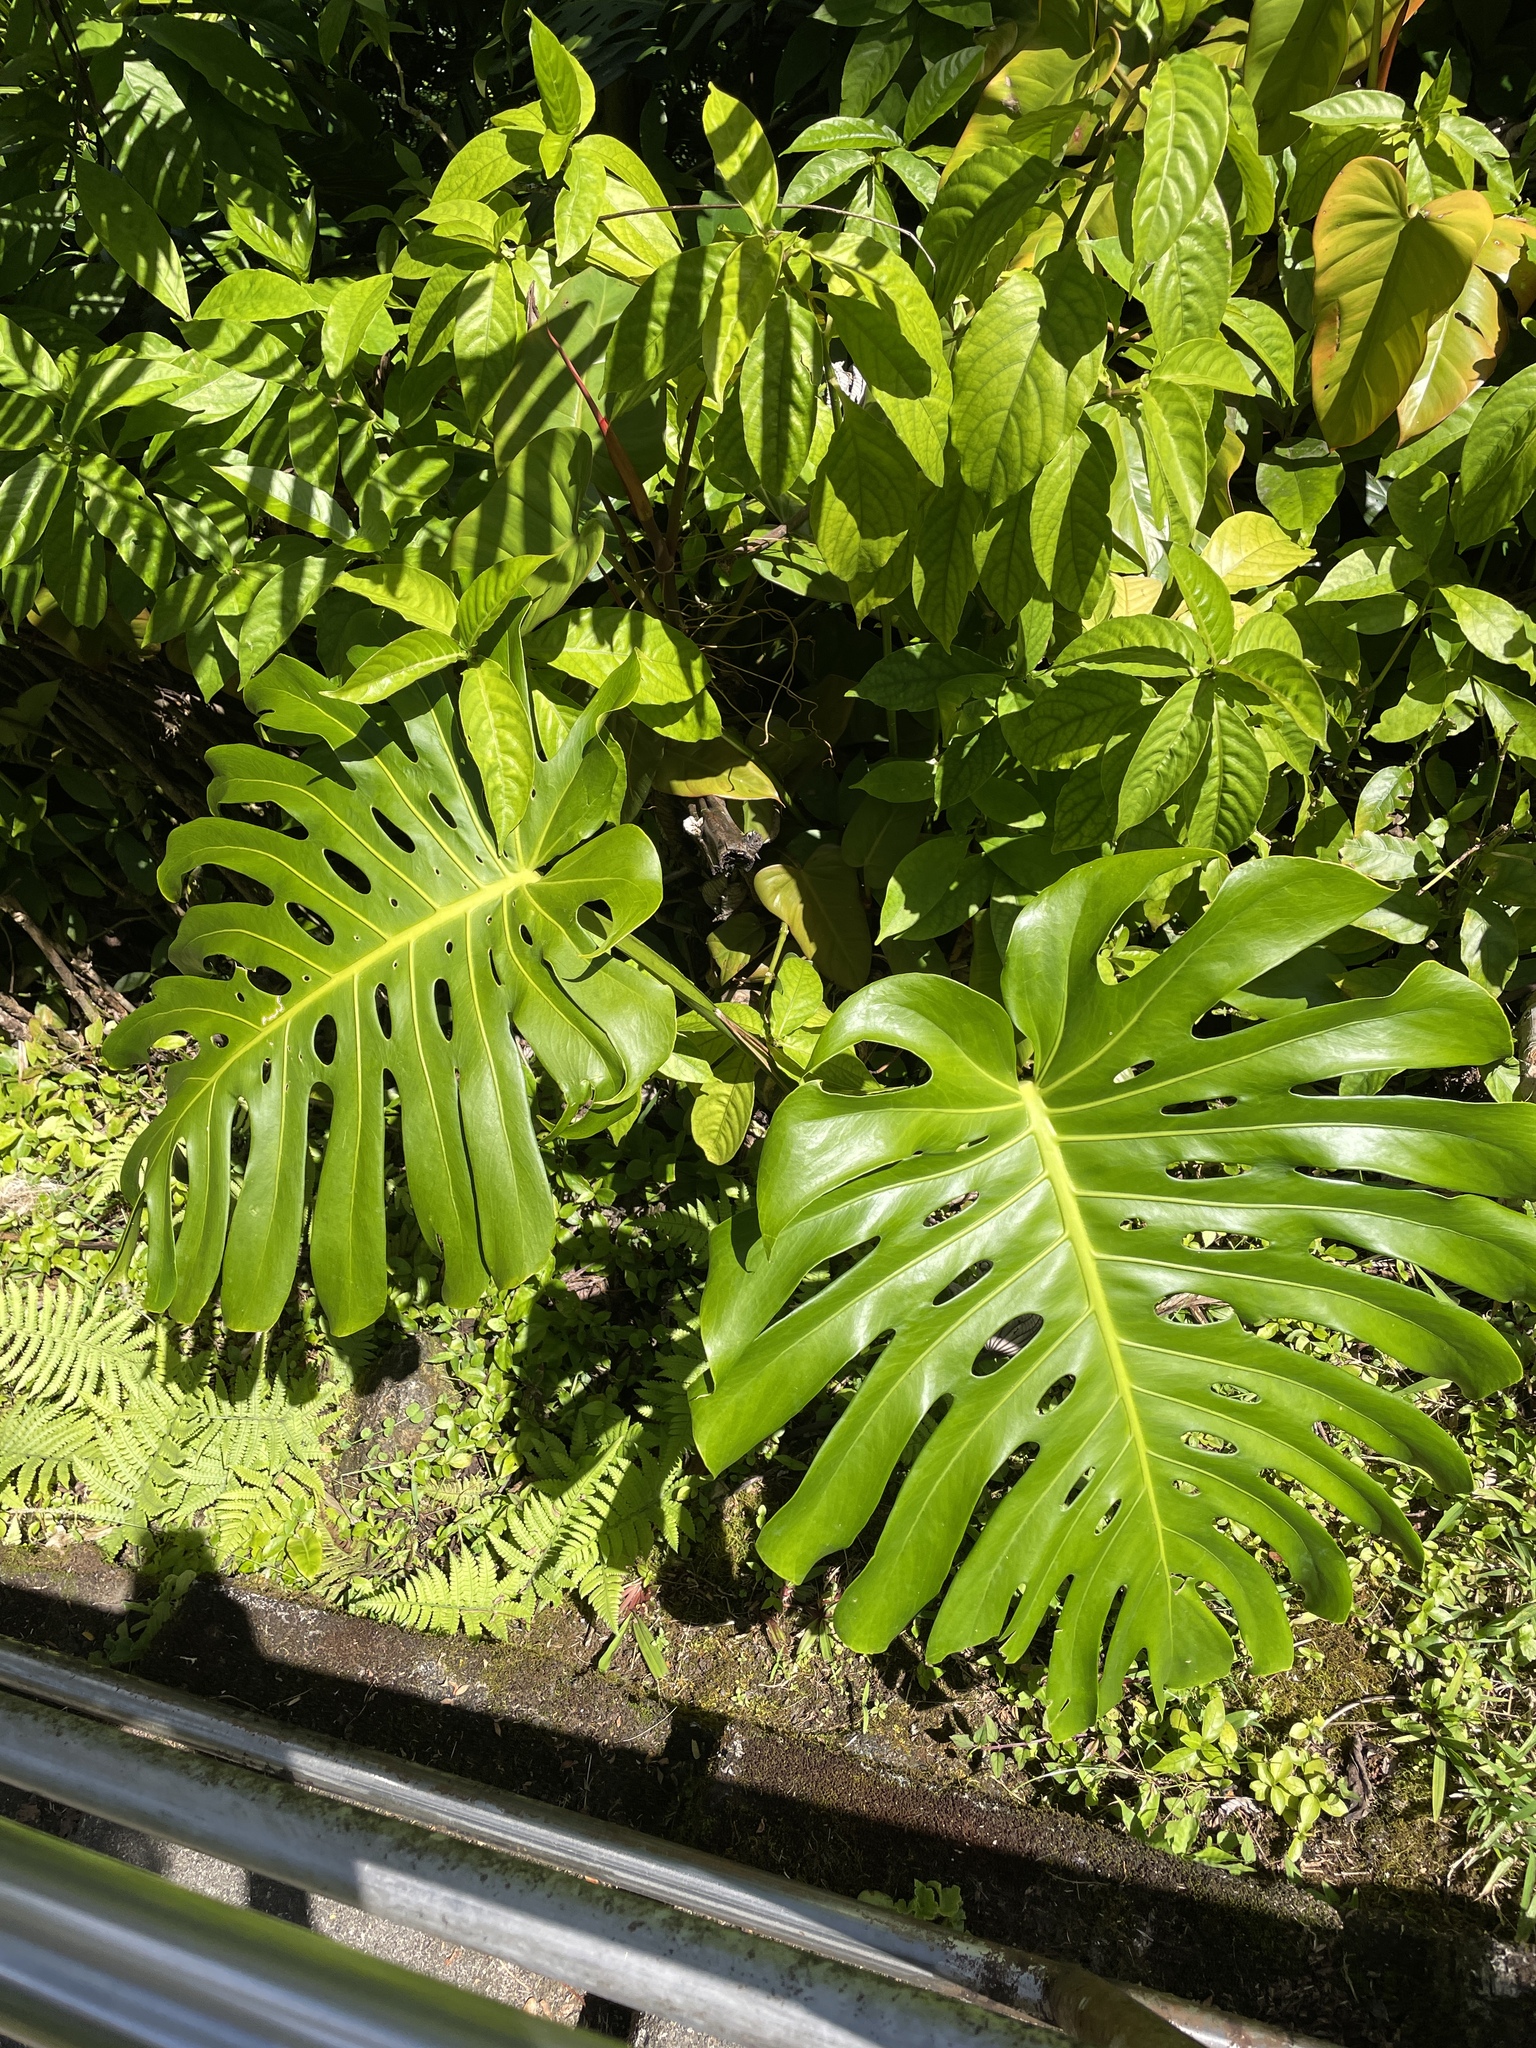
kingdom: Plantae
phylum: Tracheophyta
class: Liliopsida
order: Alismatales
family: Araceae
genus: Monstera
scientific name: Monstera deliciosa
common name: Cut-leaf-philodendron
